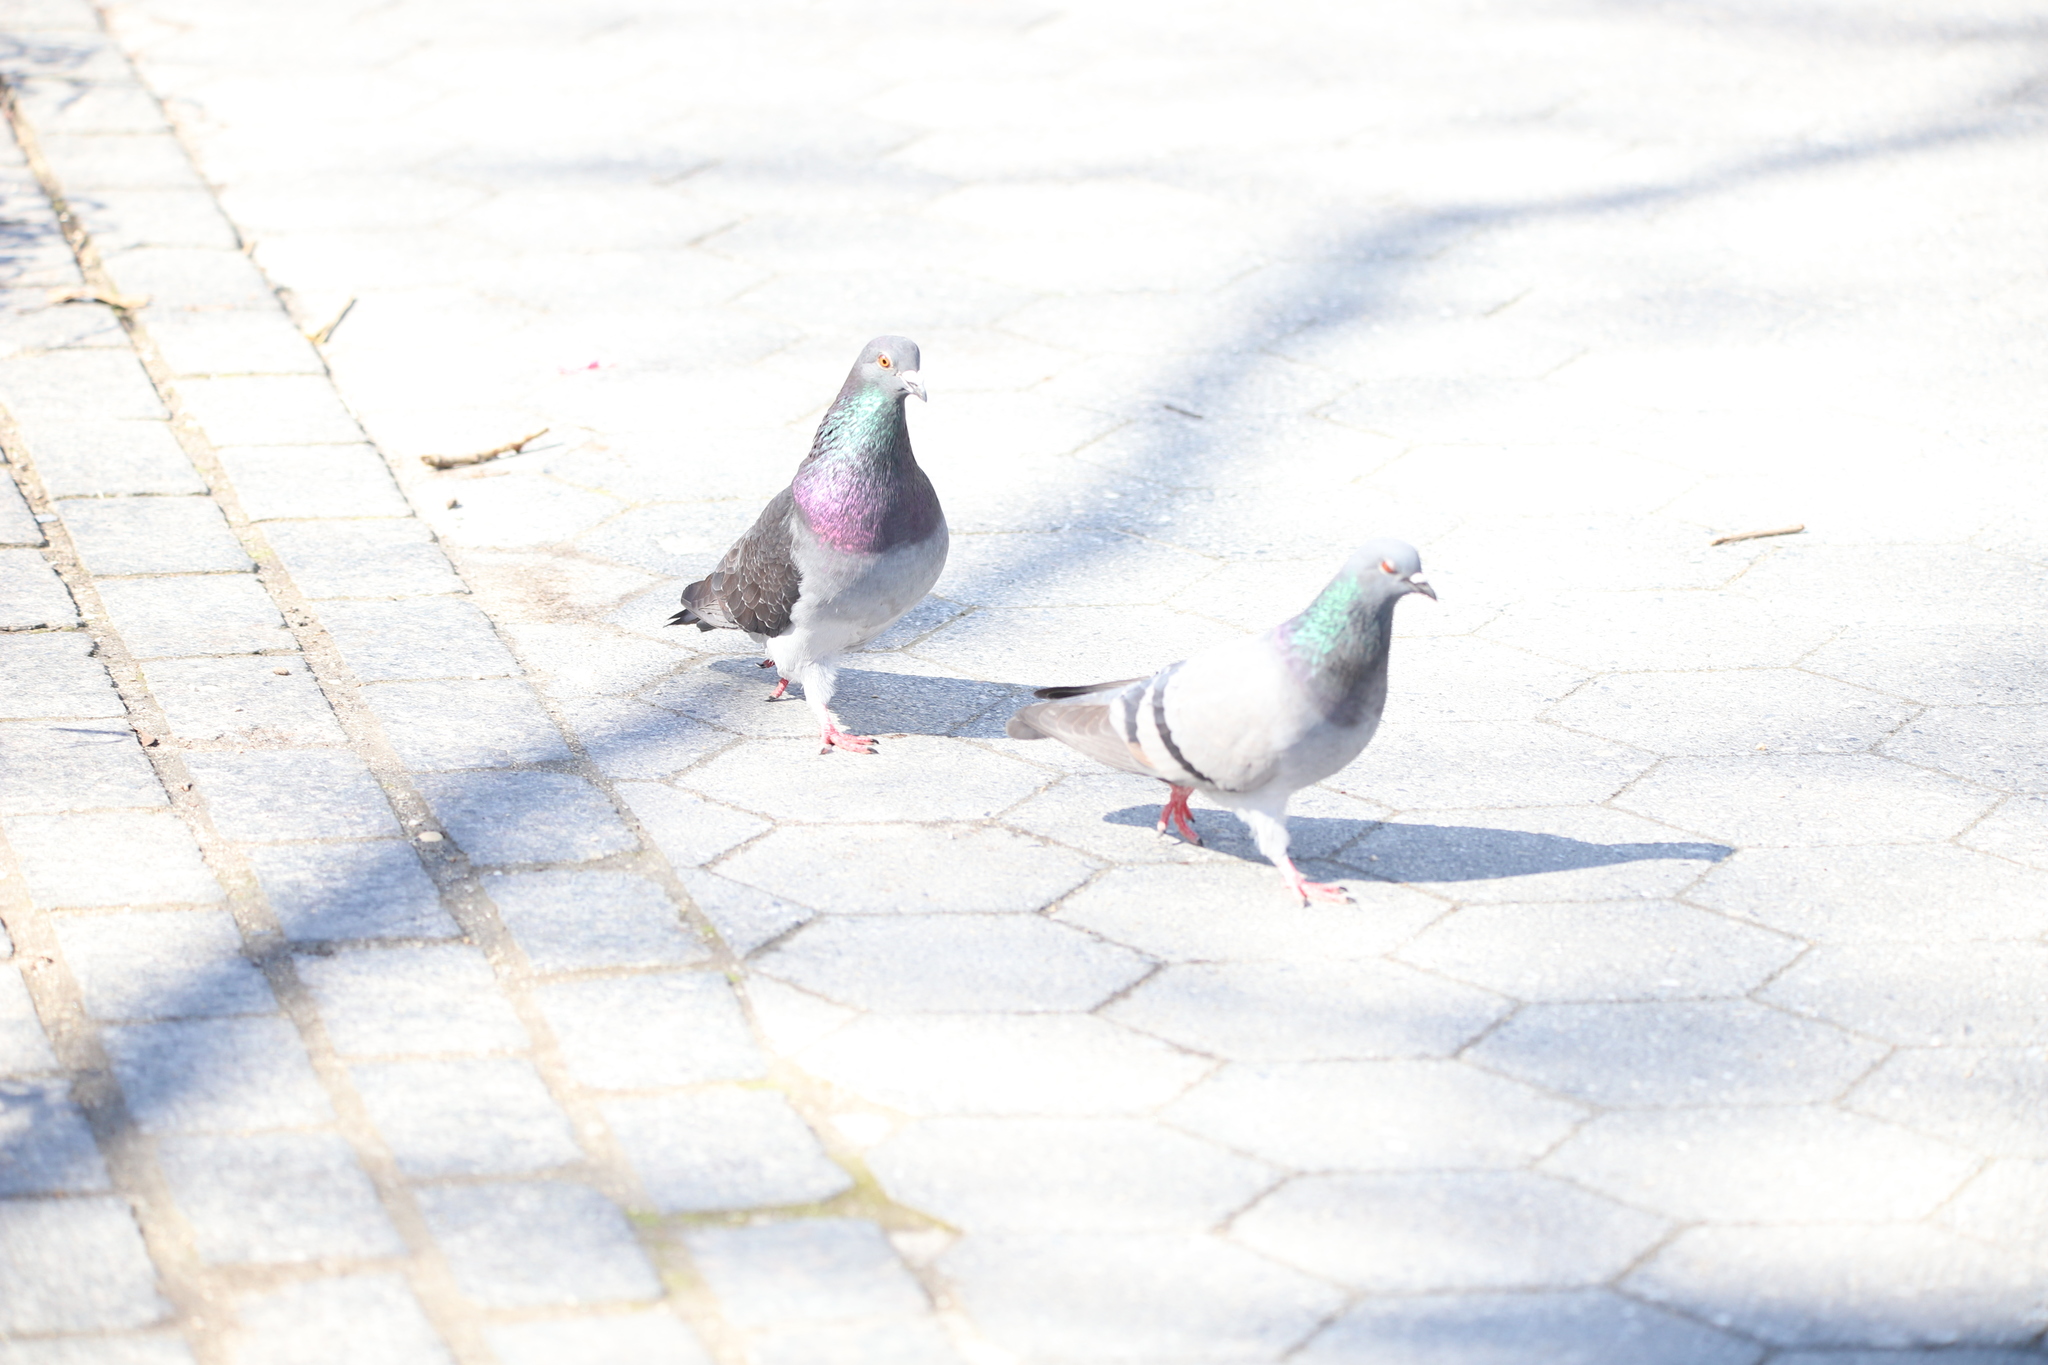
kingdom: Animalia
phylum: Chordata
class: Aves
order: Columbiformes
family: Columbidae
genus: Columba
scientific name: Columba livia
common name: Rock pigeon
